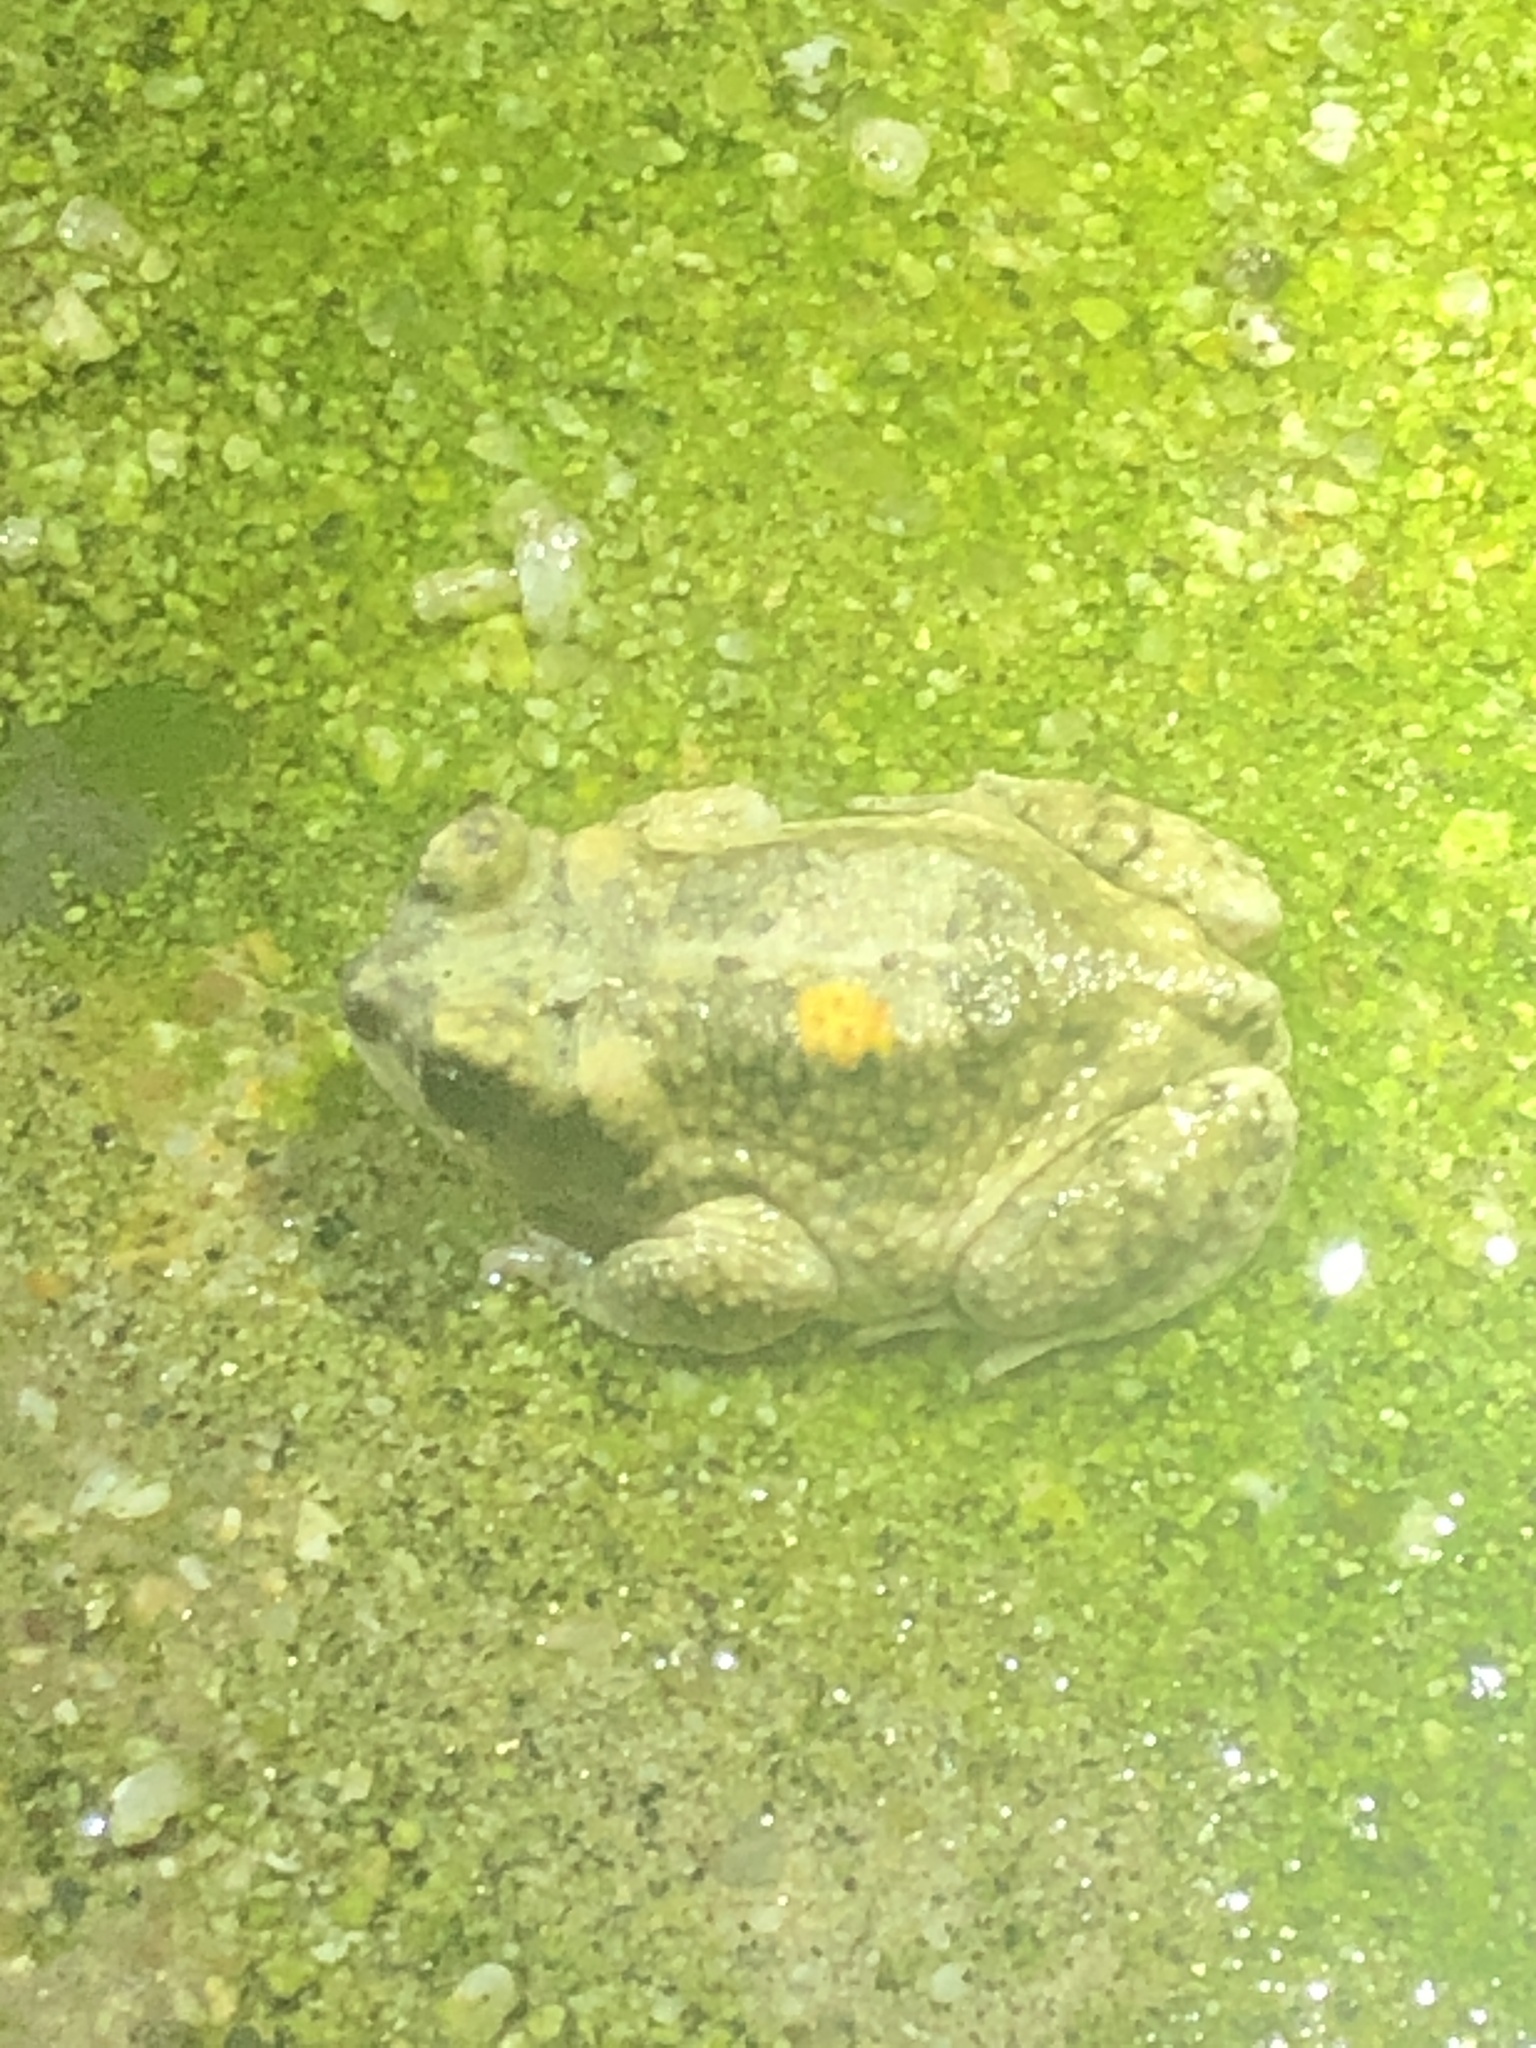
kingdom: Animalia
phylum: Chordata
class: Amphibia
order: Anura
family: Bufonidae
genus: Anaxyrus
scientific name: Anaxyrus punctatus
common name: Red-spotted toad
